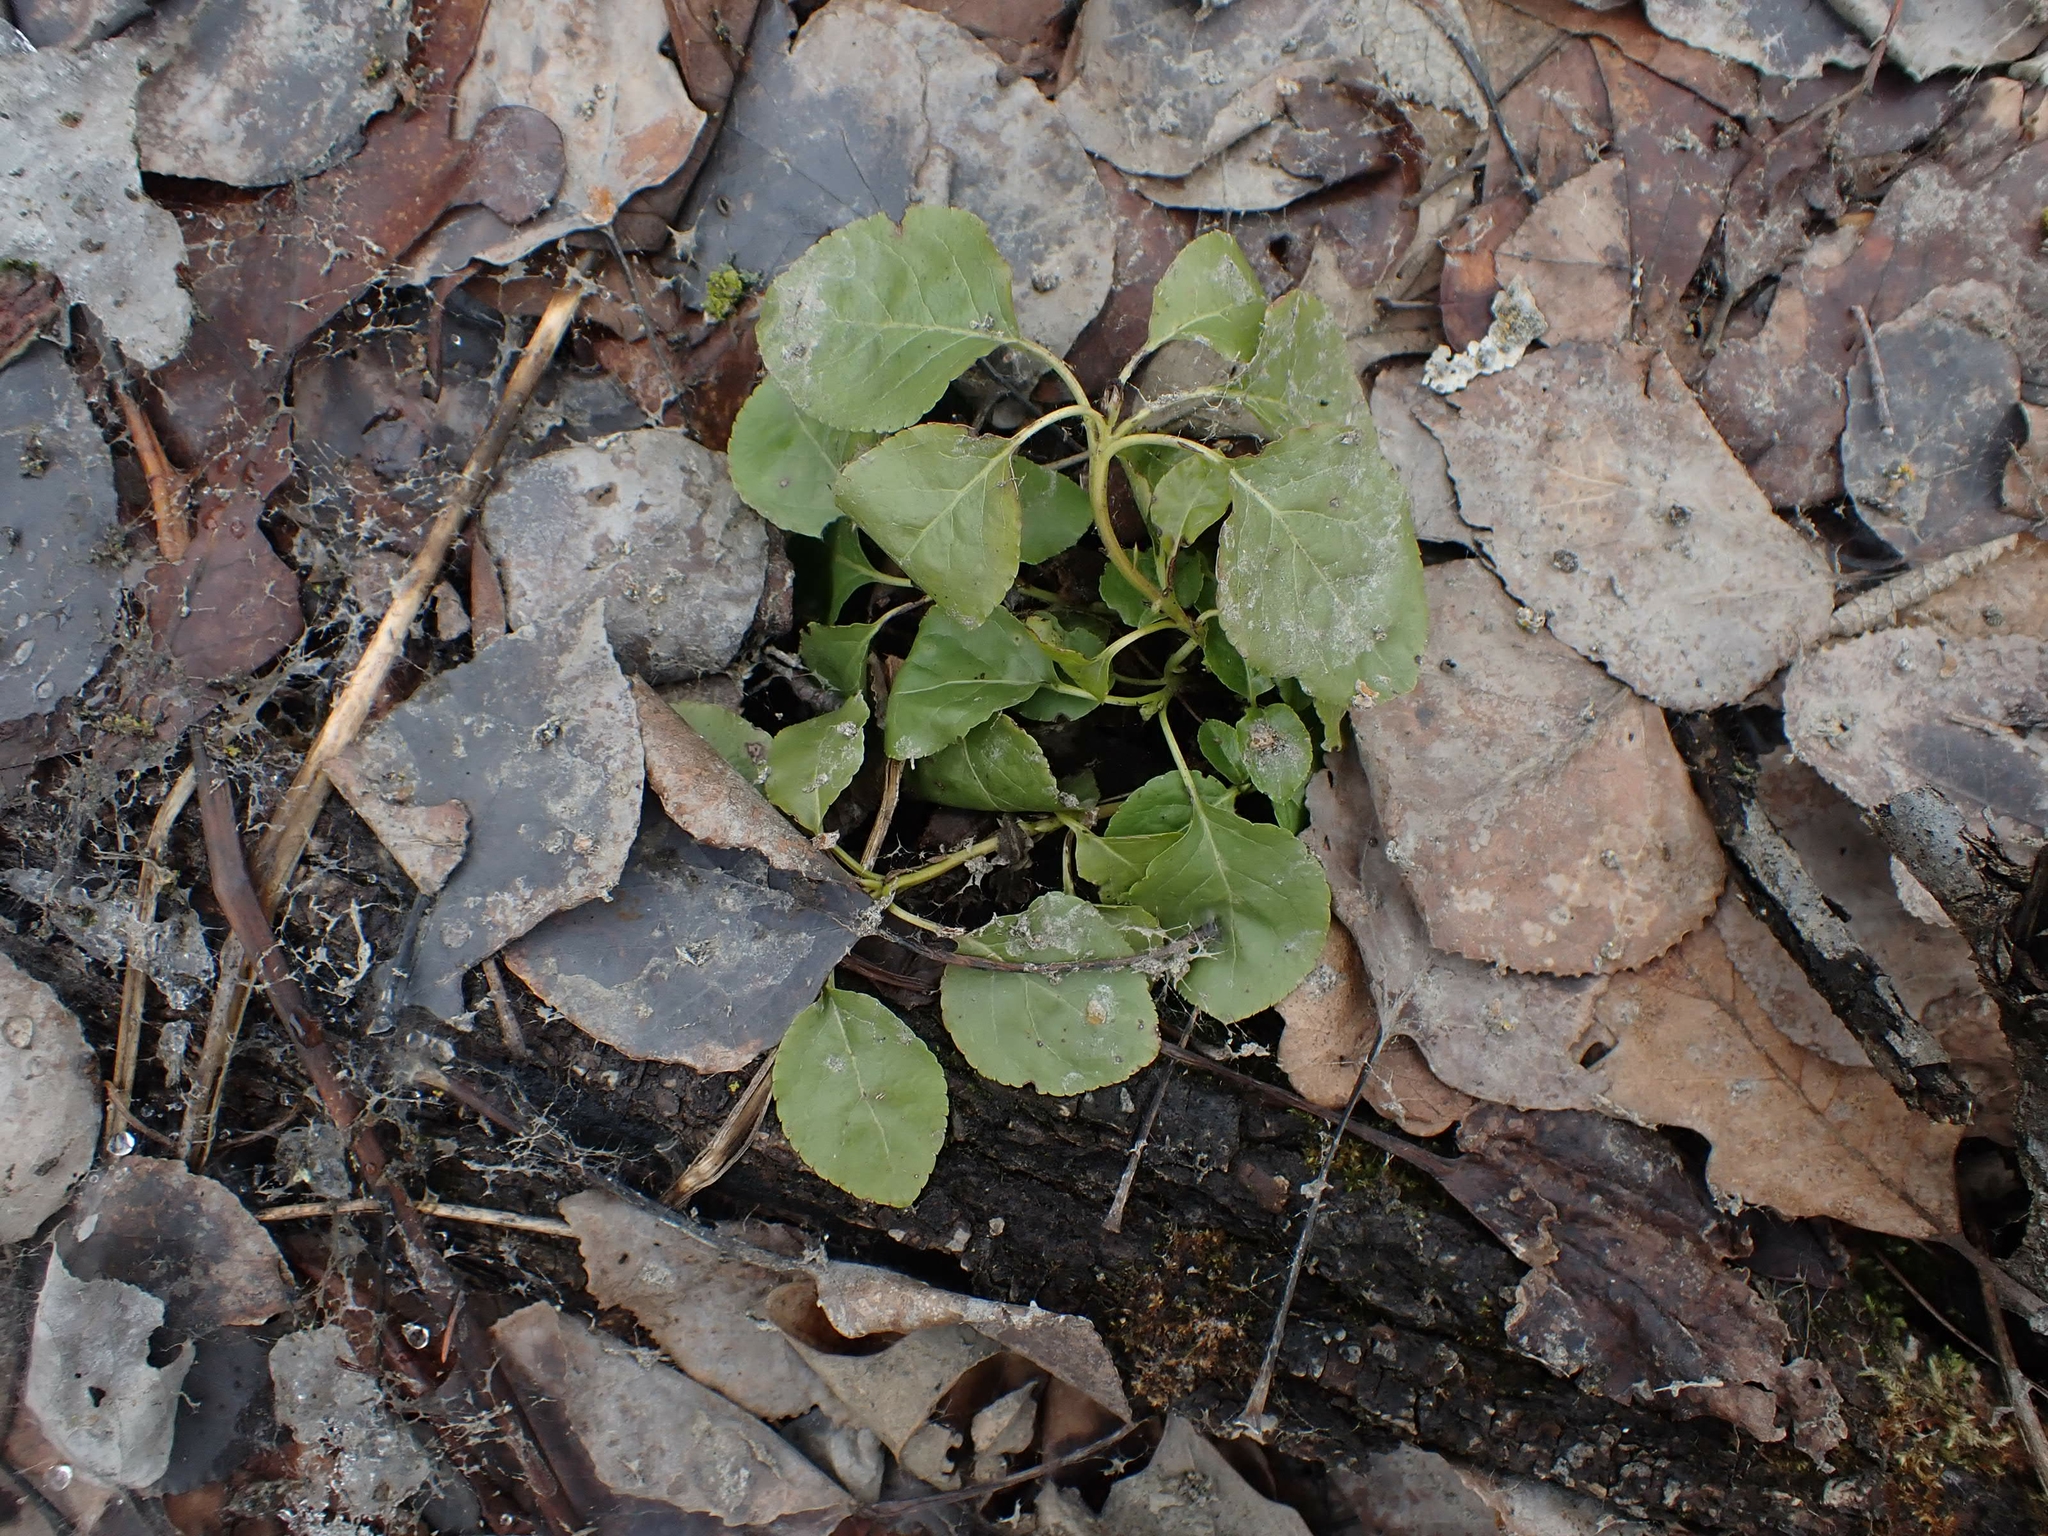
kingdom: Plantae
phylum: Tracheophyta
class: Magnoliopsida
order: Ericales
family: Ericaceae
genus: Orthilia
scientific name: Orthilia secunda
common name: One-sided orthilia
